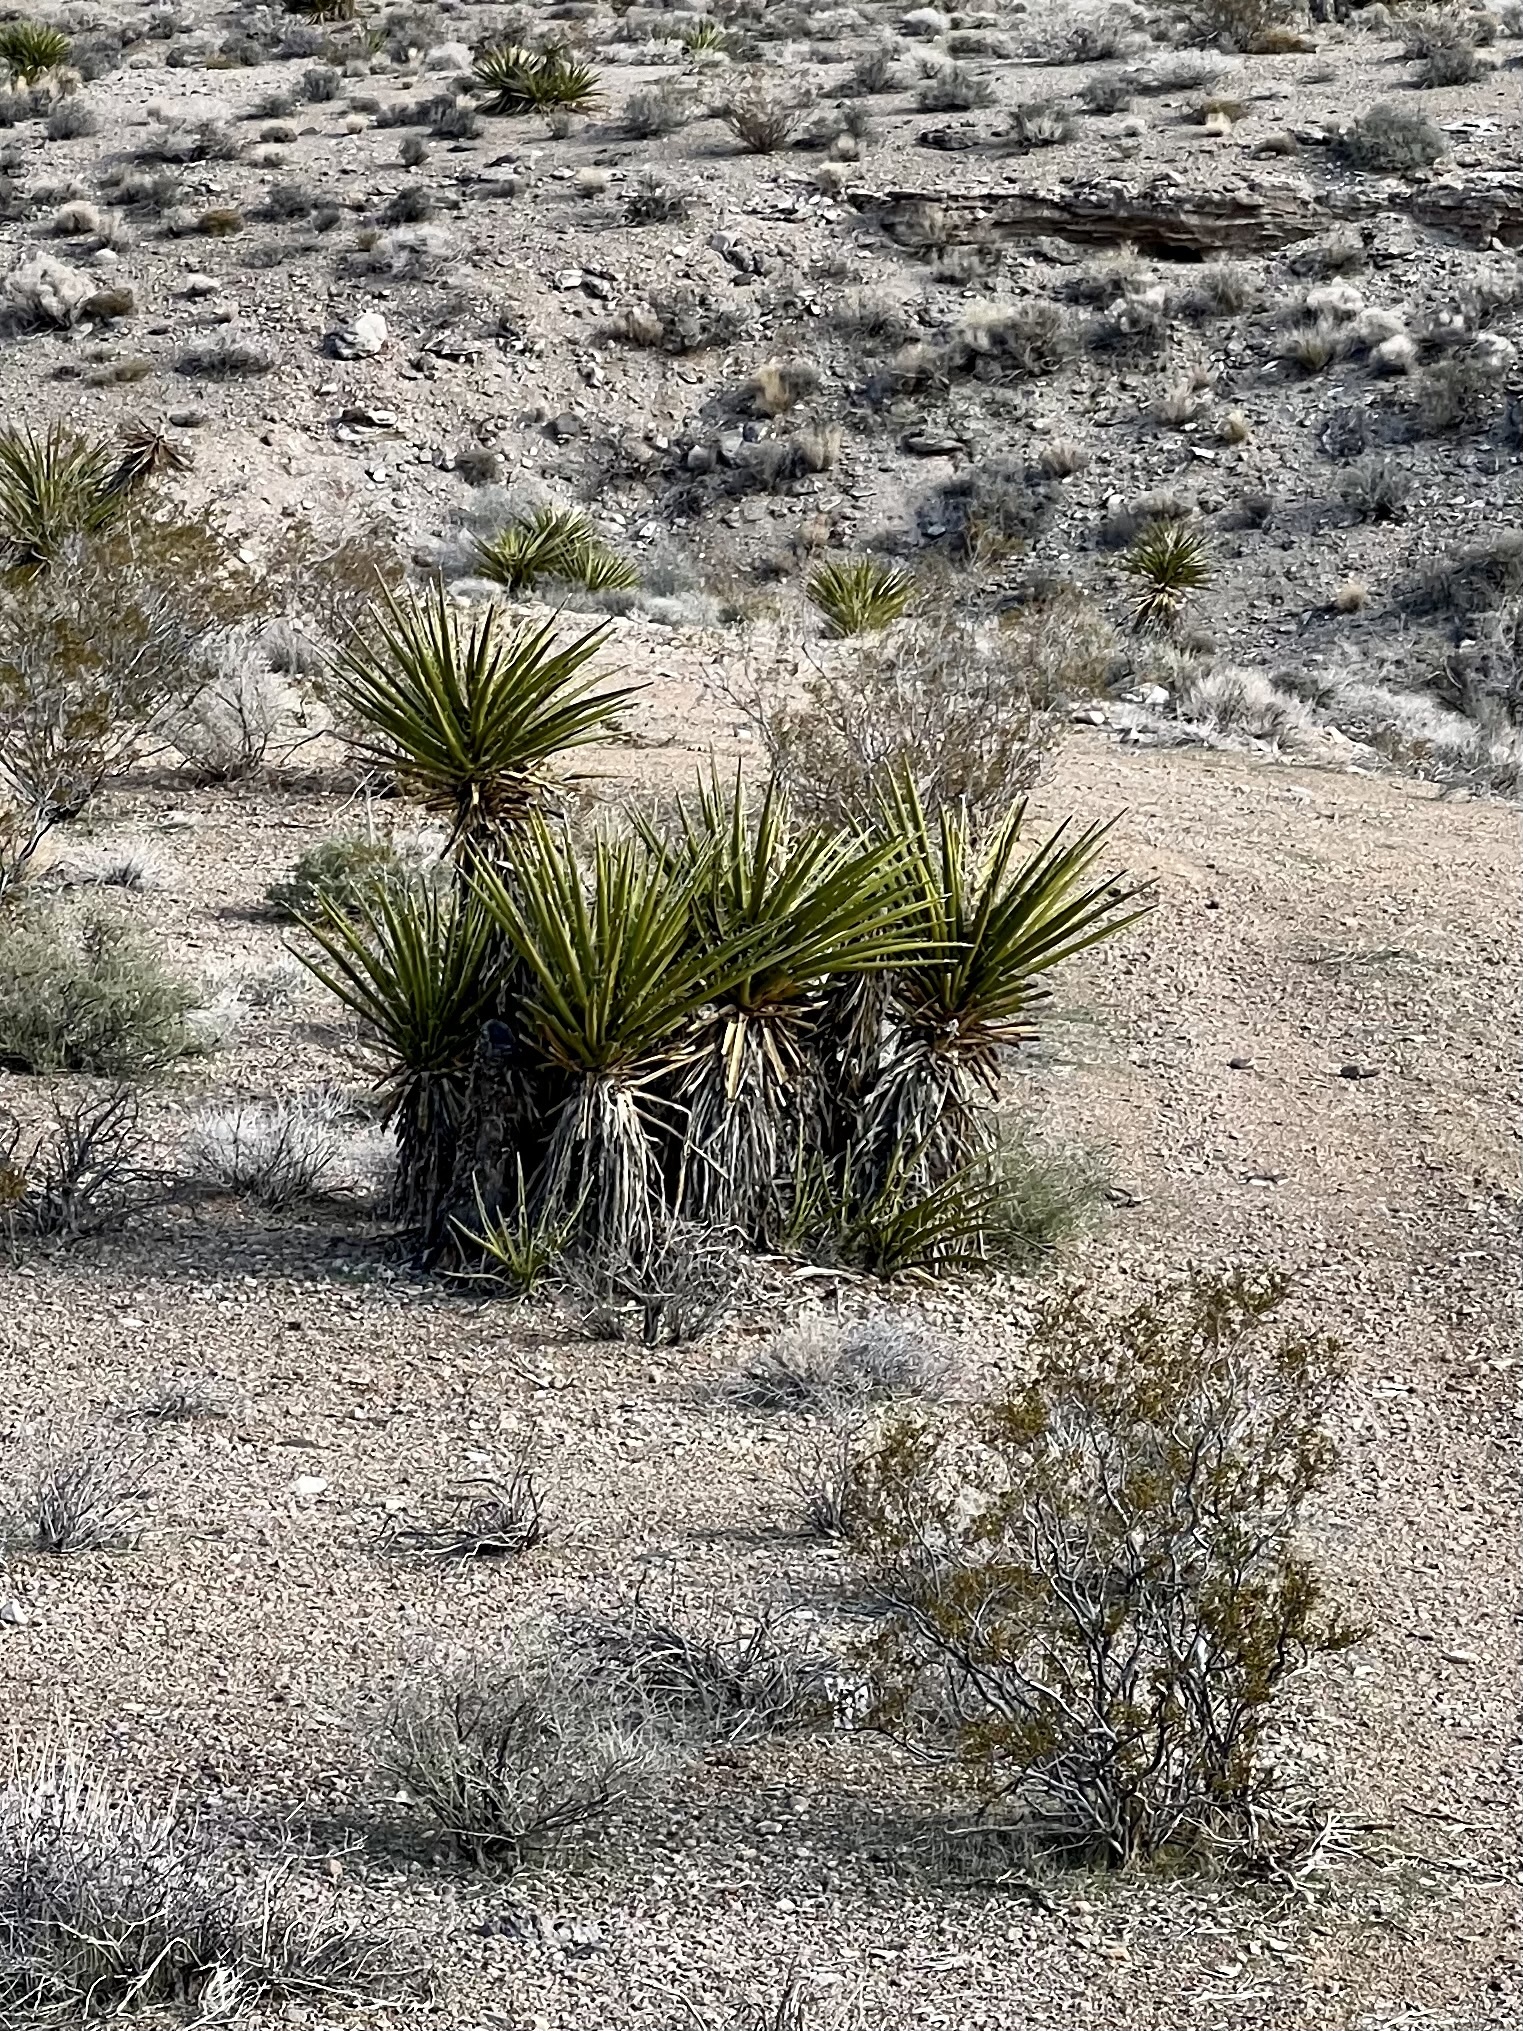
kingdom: Plantae
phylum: Tracheophyta
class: Liliopsida
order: Asparagales
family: Asparagaceae
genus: Yucca
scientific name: Yucca schidigera
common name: Mojave yucca
